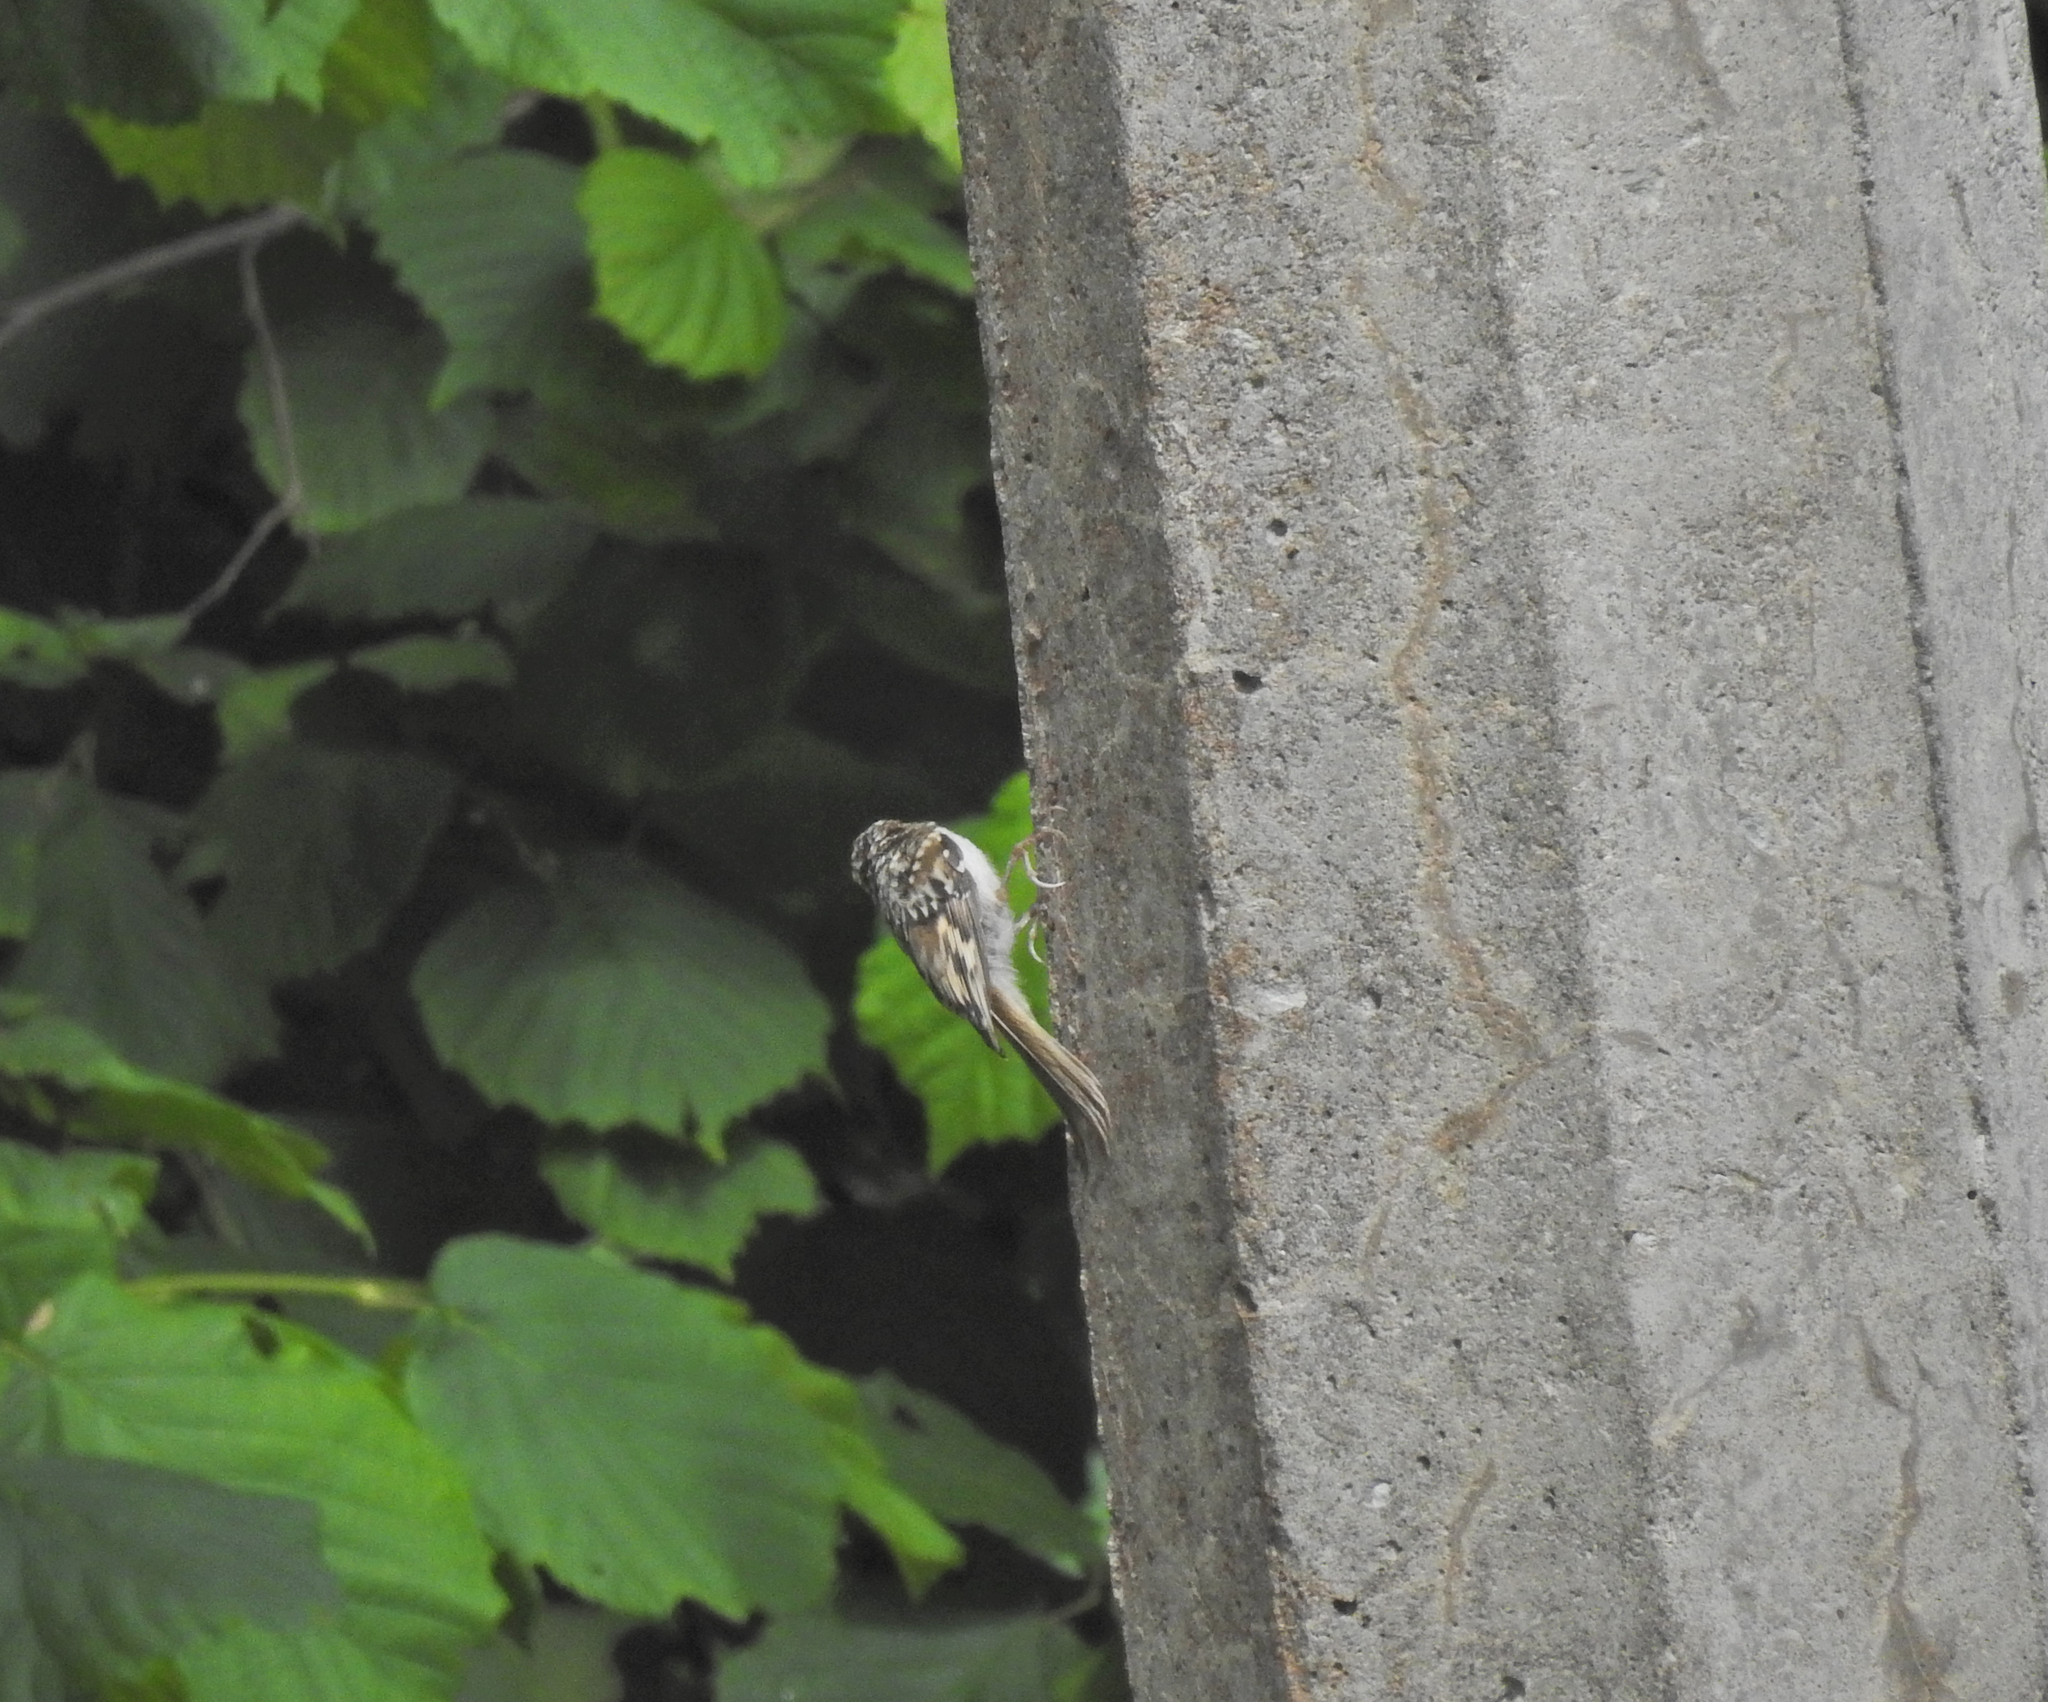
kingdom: Animalia
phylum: Chordata
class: Aves
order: Passeriformes
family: Certhiidae
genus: Certhia
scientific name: Certhia familiaris
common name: Eurasian treecreeper
